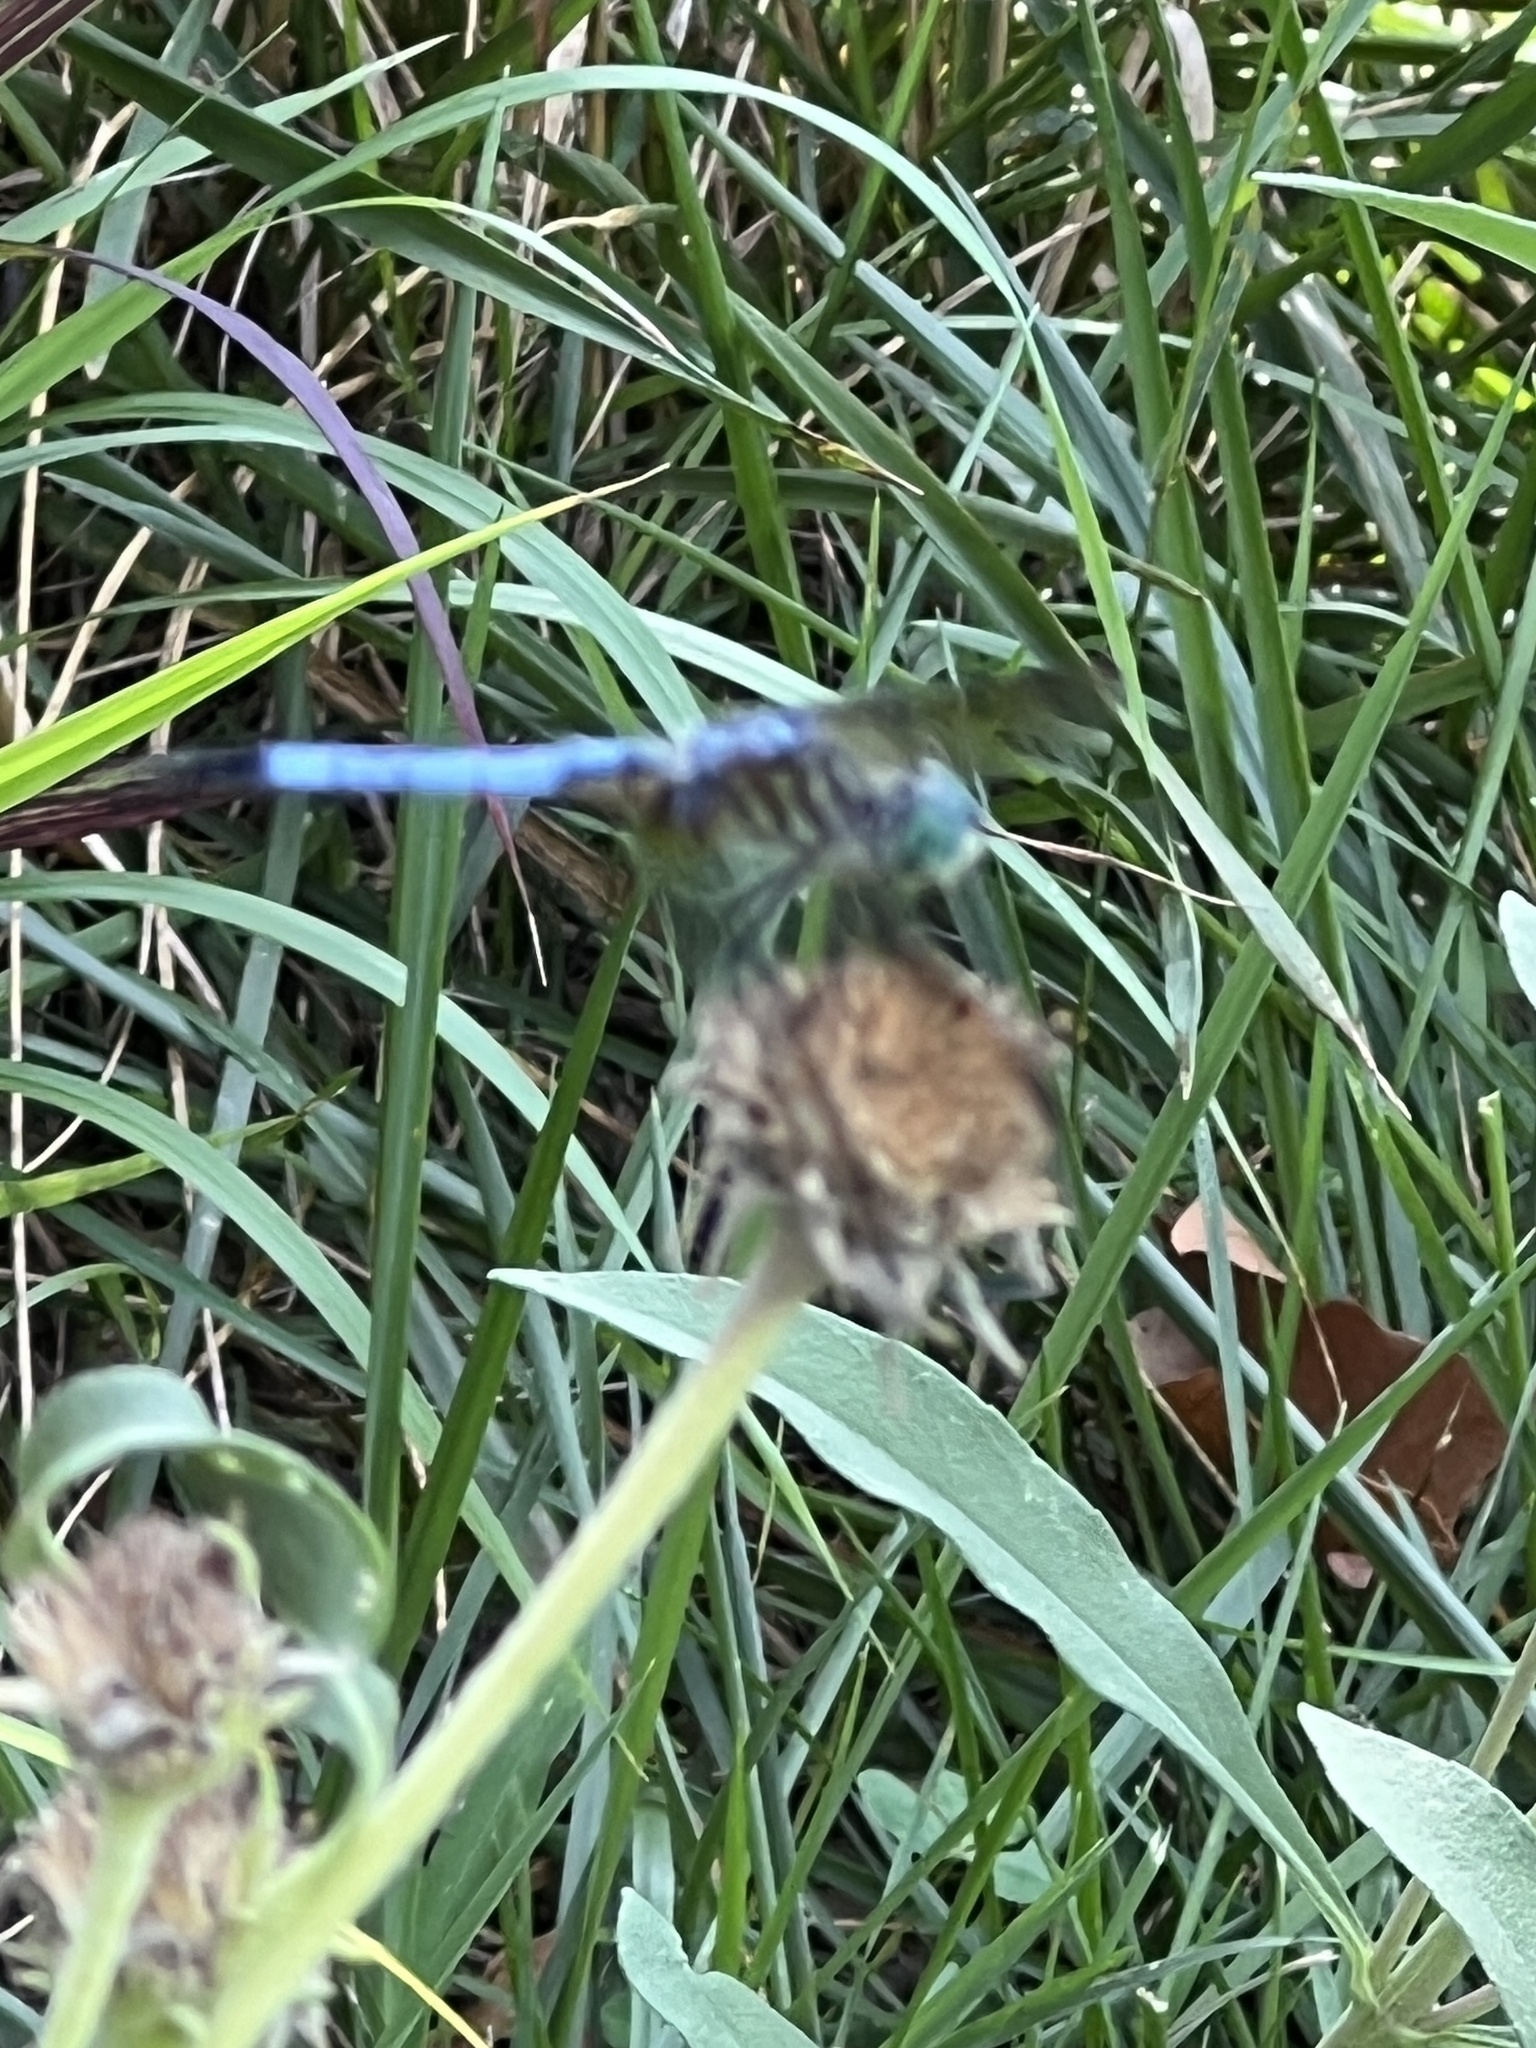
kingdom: Animalia
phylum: Arthropoda
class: Insecta
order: Odonata
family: Libellulidae
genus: Pachydiplax
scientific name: Pachydiplax longipennis
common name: Blue dasher
